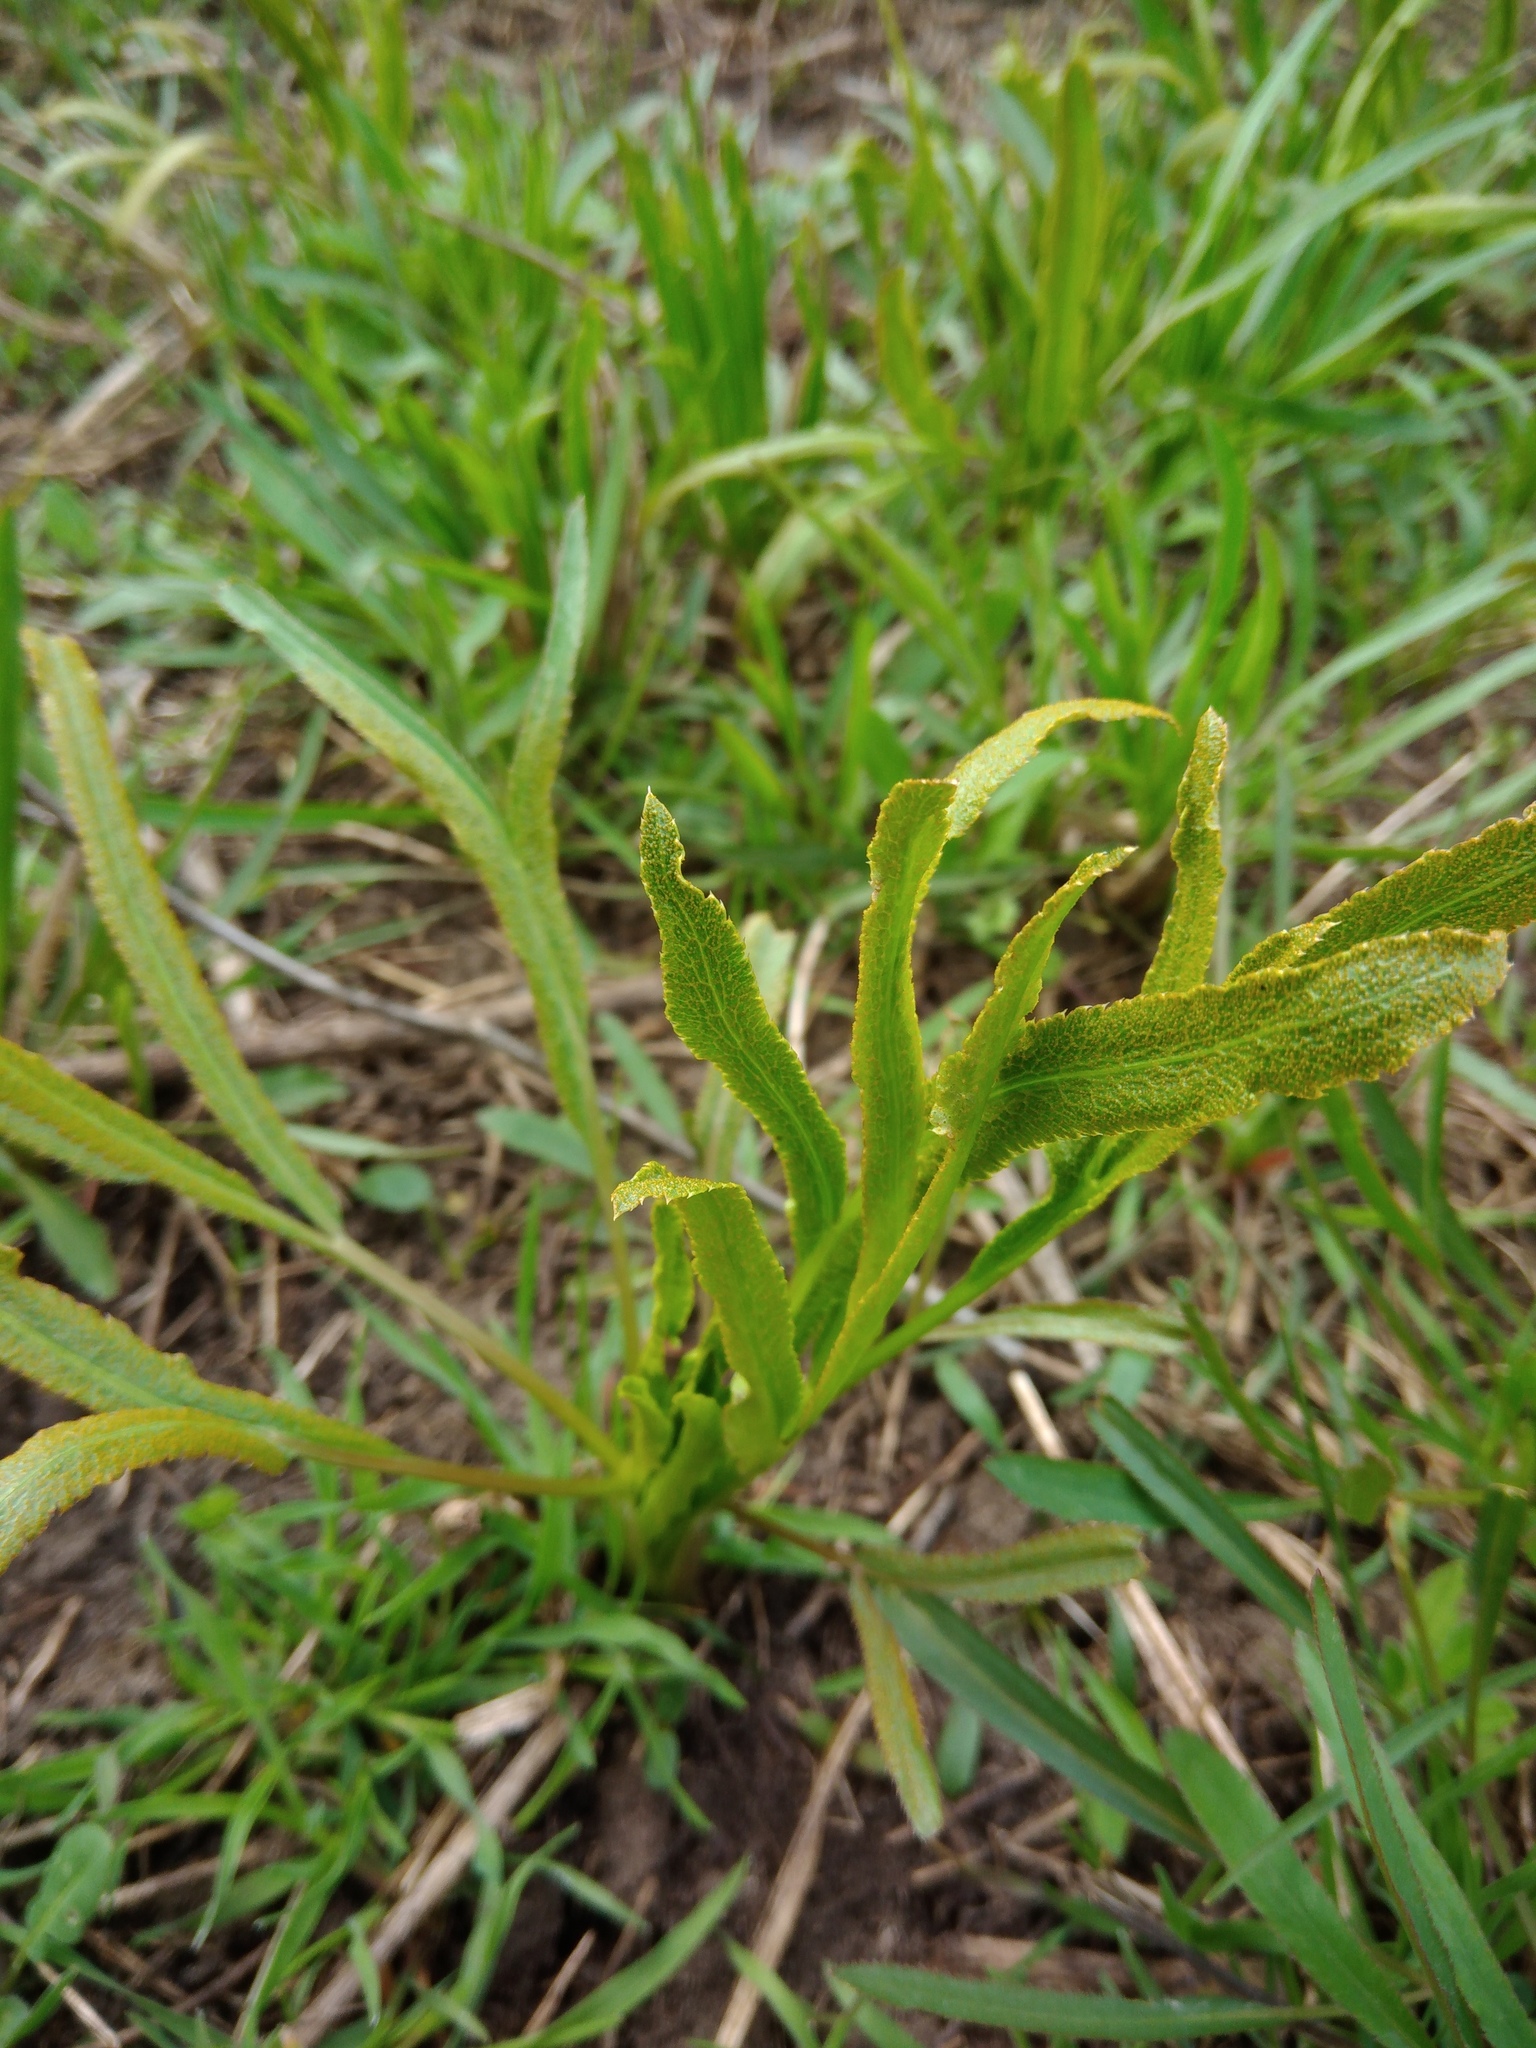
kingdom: Plantae
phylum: Tracheophyta
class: Magnoliopsida
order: Apiales
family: Apiaceae
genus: Falcaria
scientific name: Falcaria vulgaris
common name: Longleaf
